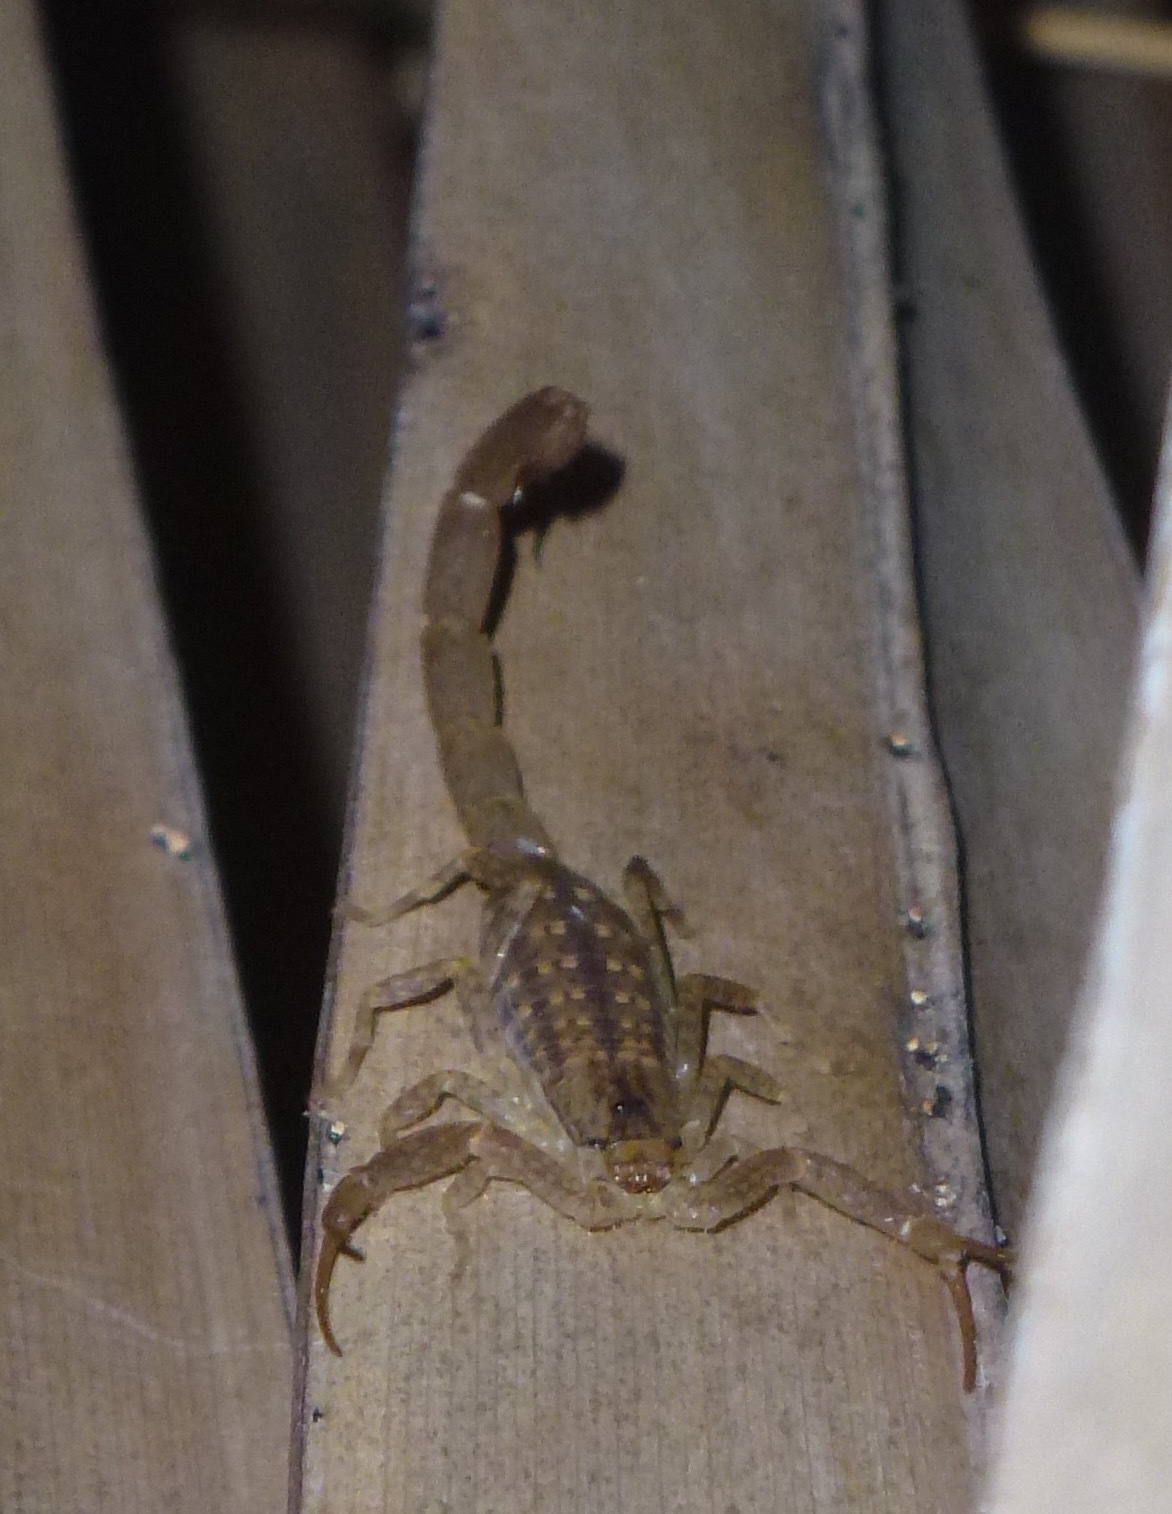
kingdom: Animalia
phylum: Arthropoda
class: Arachnida
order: Scorpiones
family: Buthidae
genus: Lychas
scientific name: Lychas serratus
